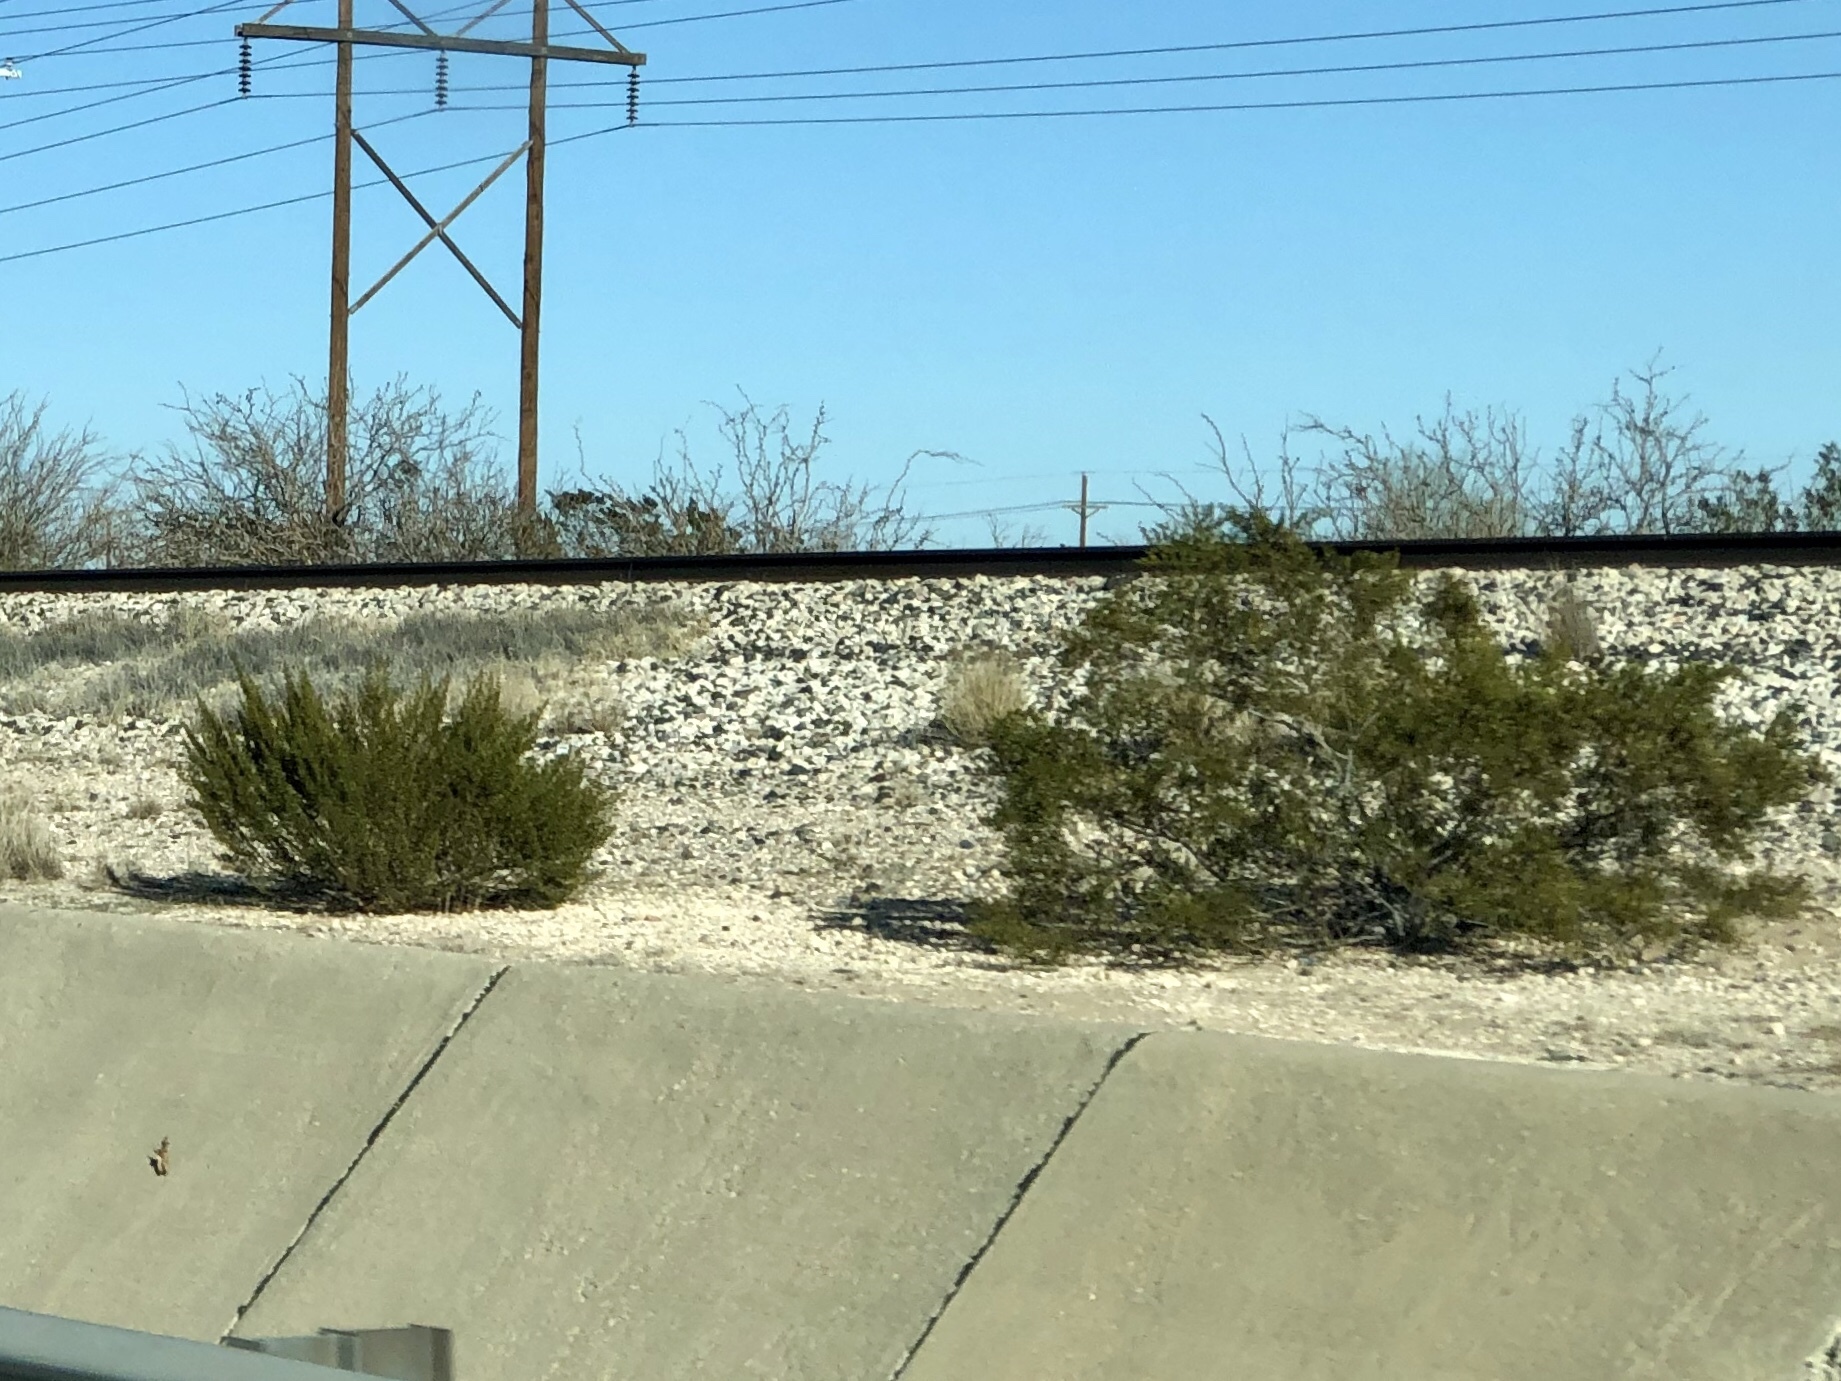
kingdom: Plantae
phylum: Tracheophyta
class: Magnoliopsida
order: Zygophyllales
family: Zygophyllaceae
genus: Larrea
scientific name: Larrea tridentata
